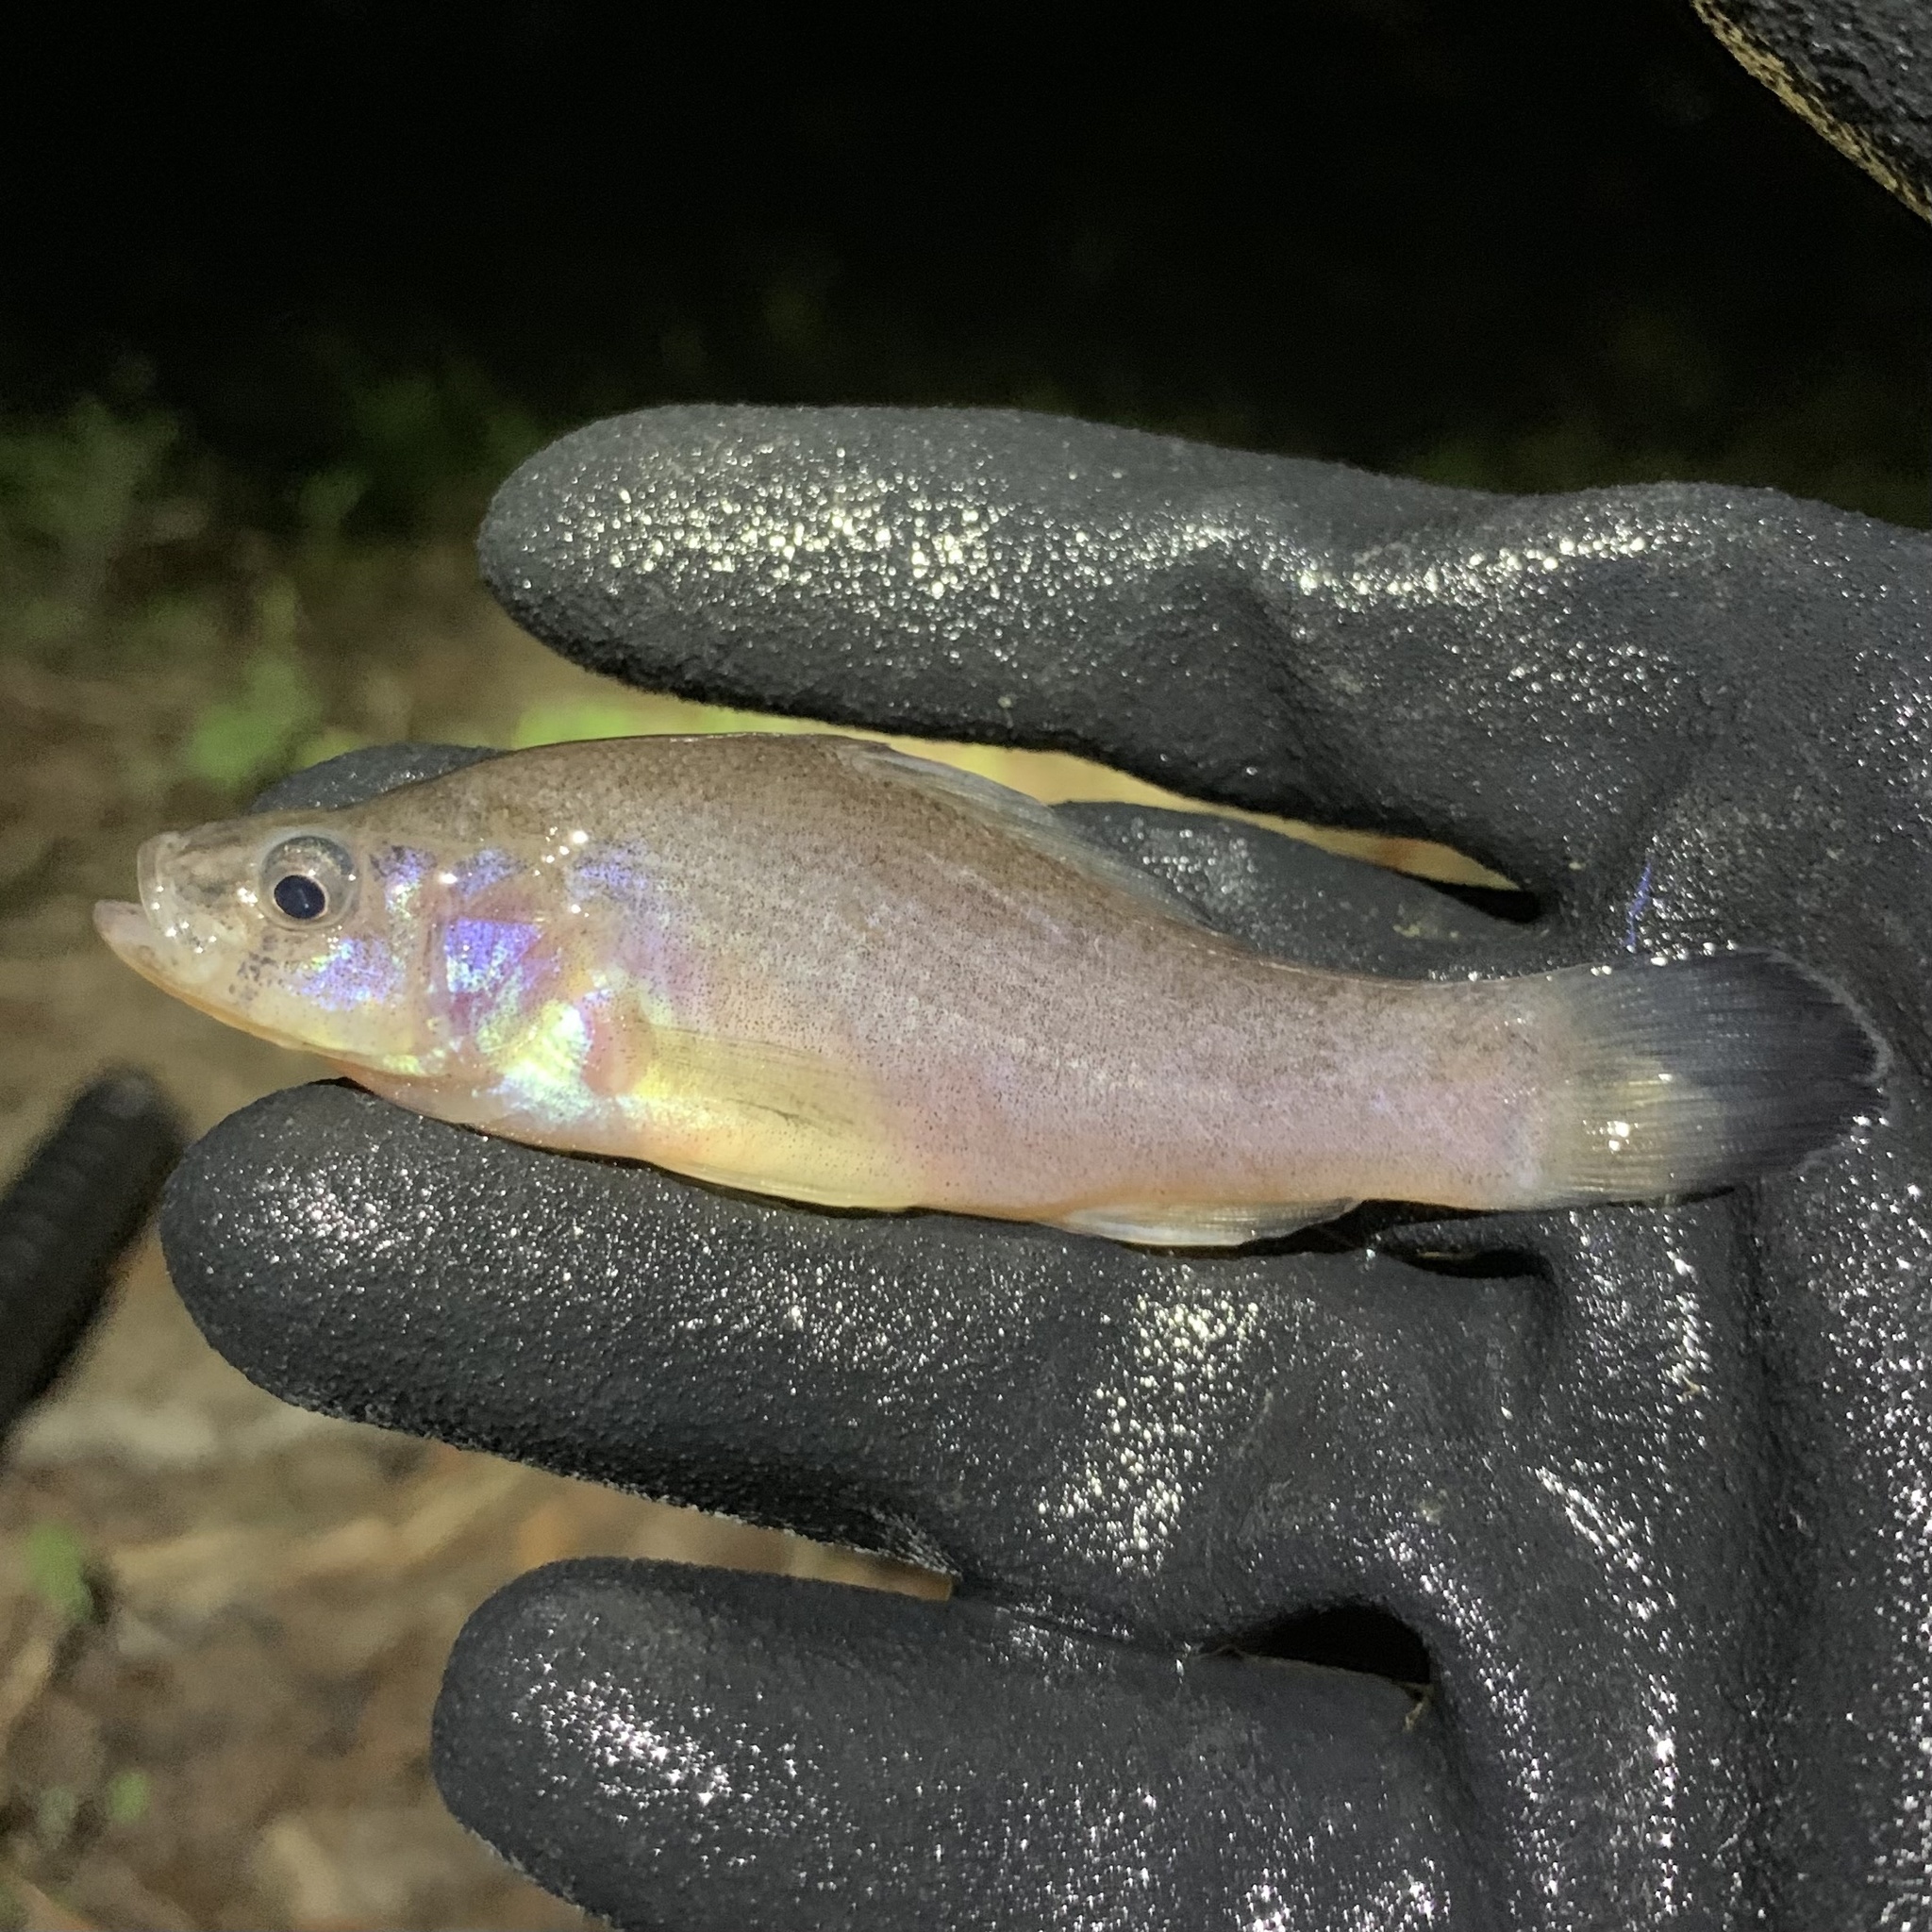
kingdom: Animalia
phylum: Chordata
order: Percopsiformes
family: Aphredoderidae
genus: Aphredoderus
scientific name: Aphredoderus sayanus
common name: Pirate perch
